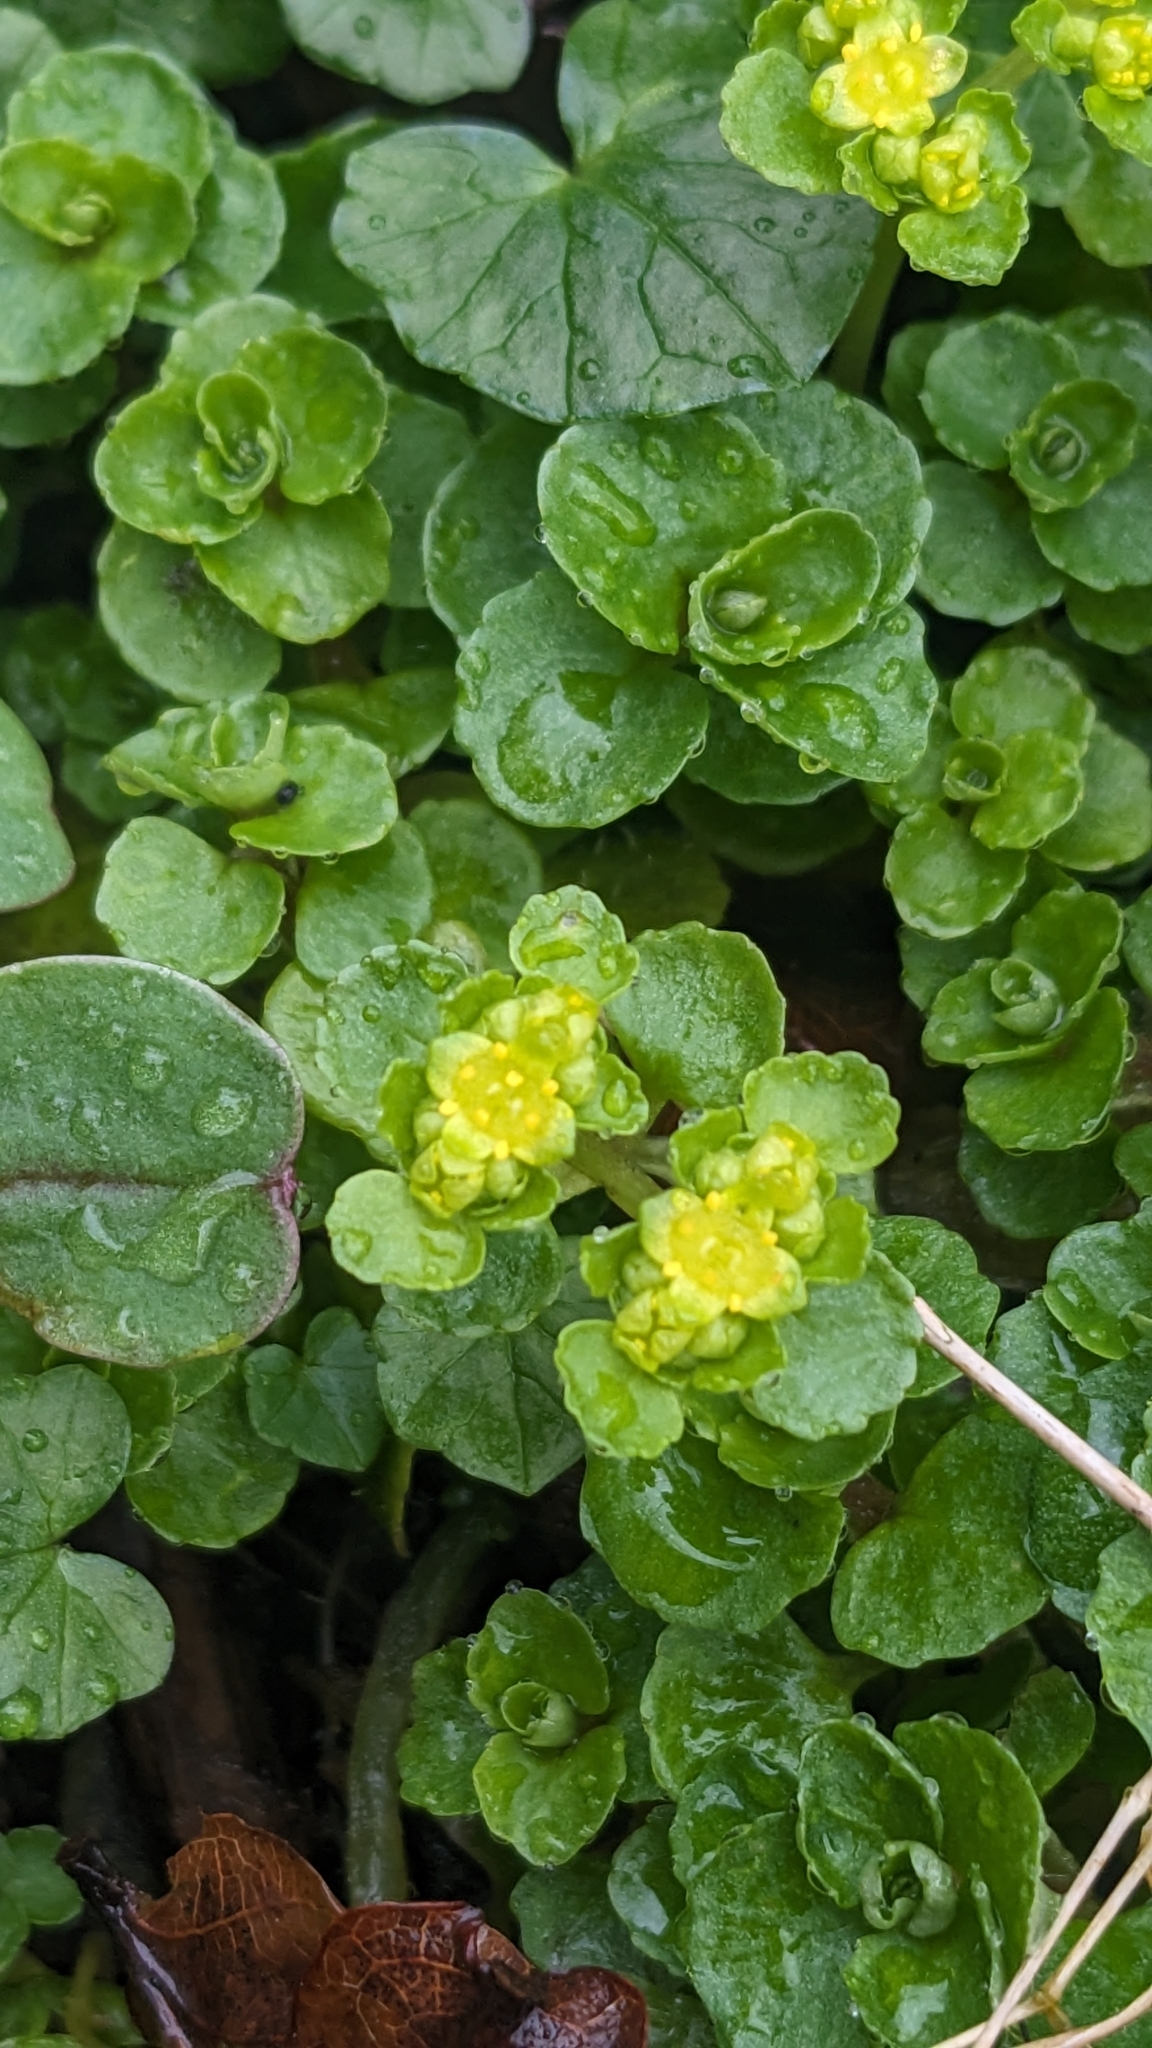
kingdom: Plantae
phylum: Tracheophyta
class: Magnoliopsida
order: Saxifragales
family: Saxifragaceae
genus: Chrysosplenium
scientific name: Chrysosplenium oppositifolium
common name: Opposite-leaved golden-saxifrage
